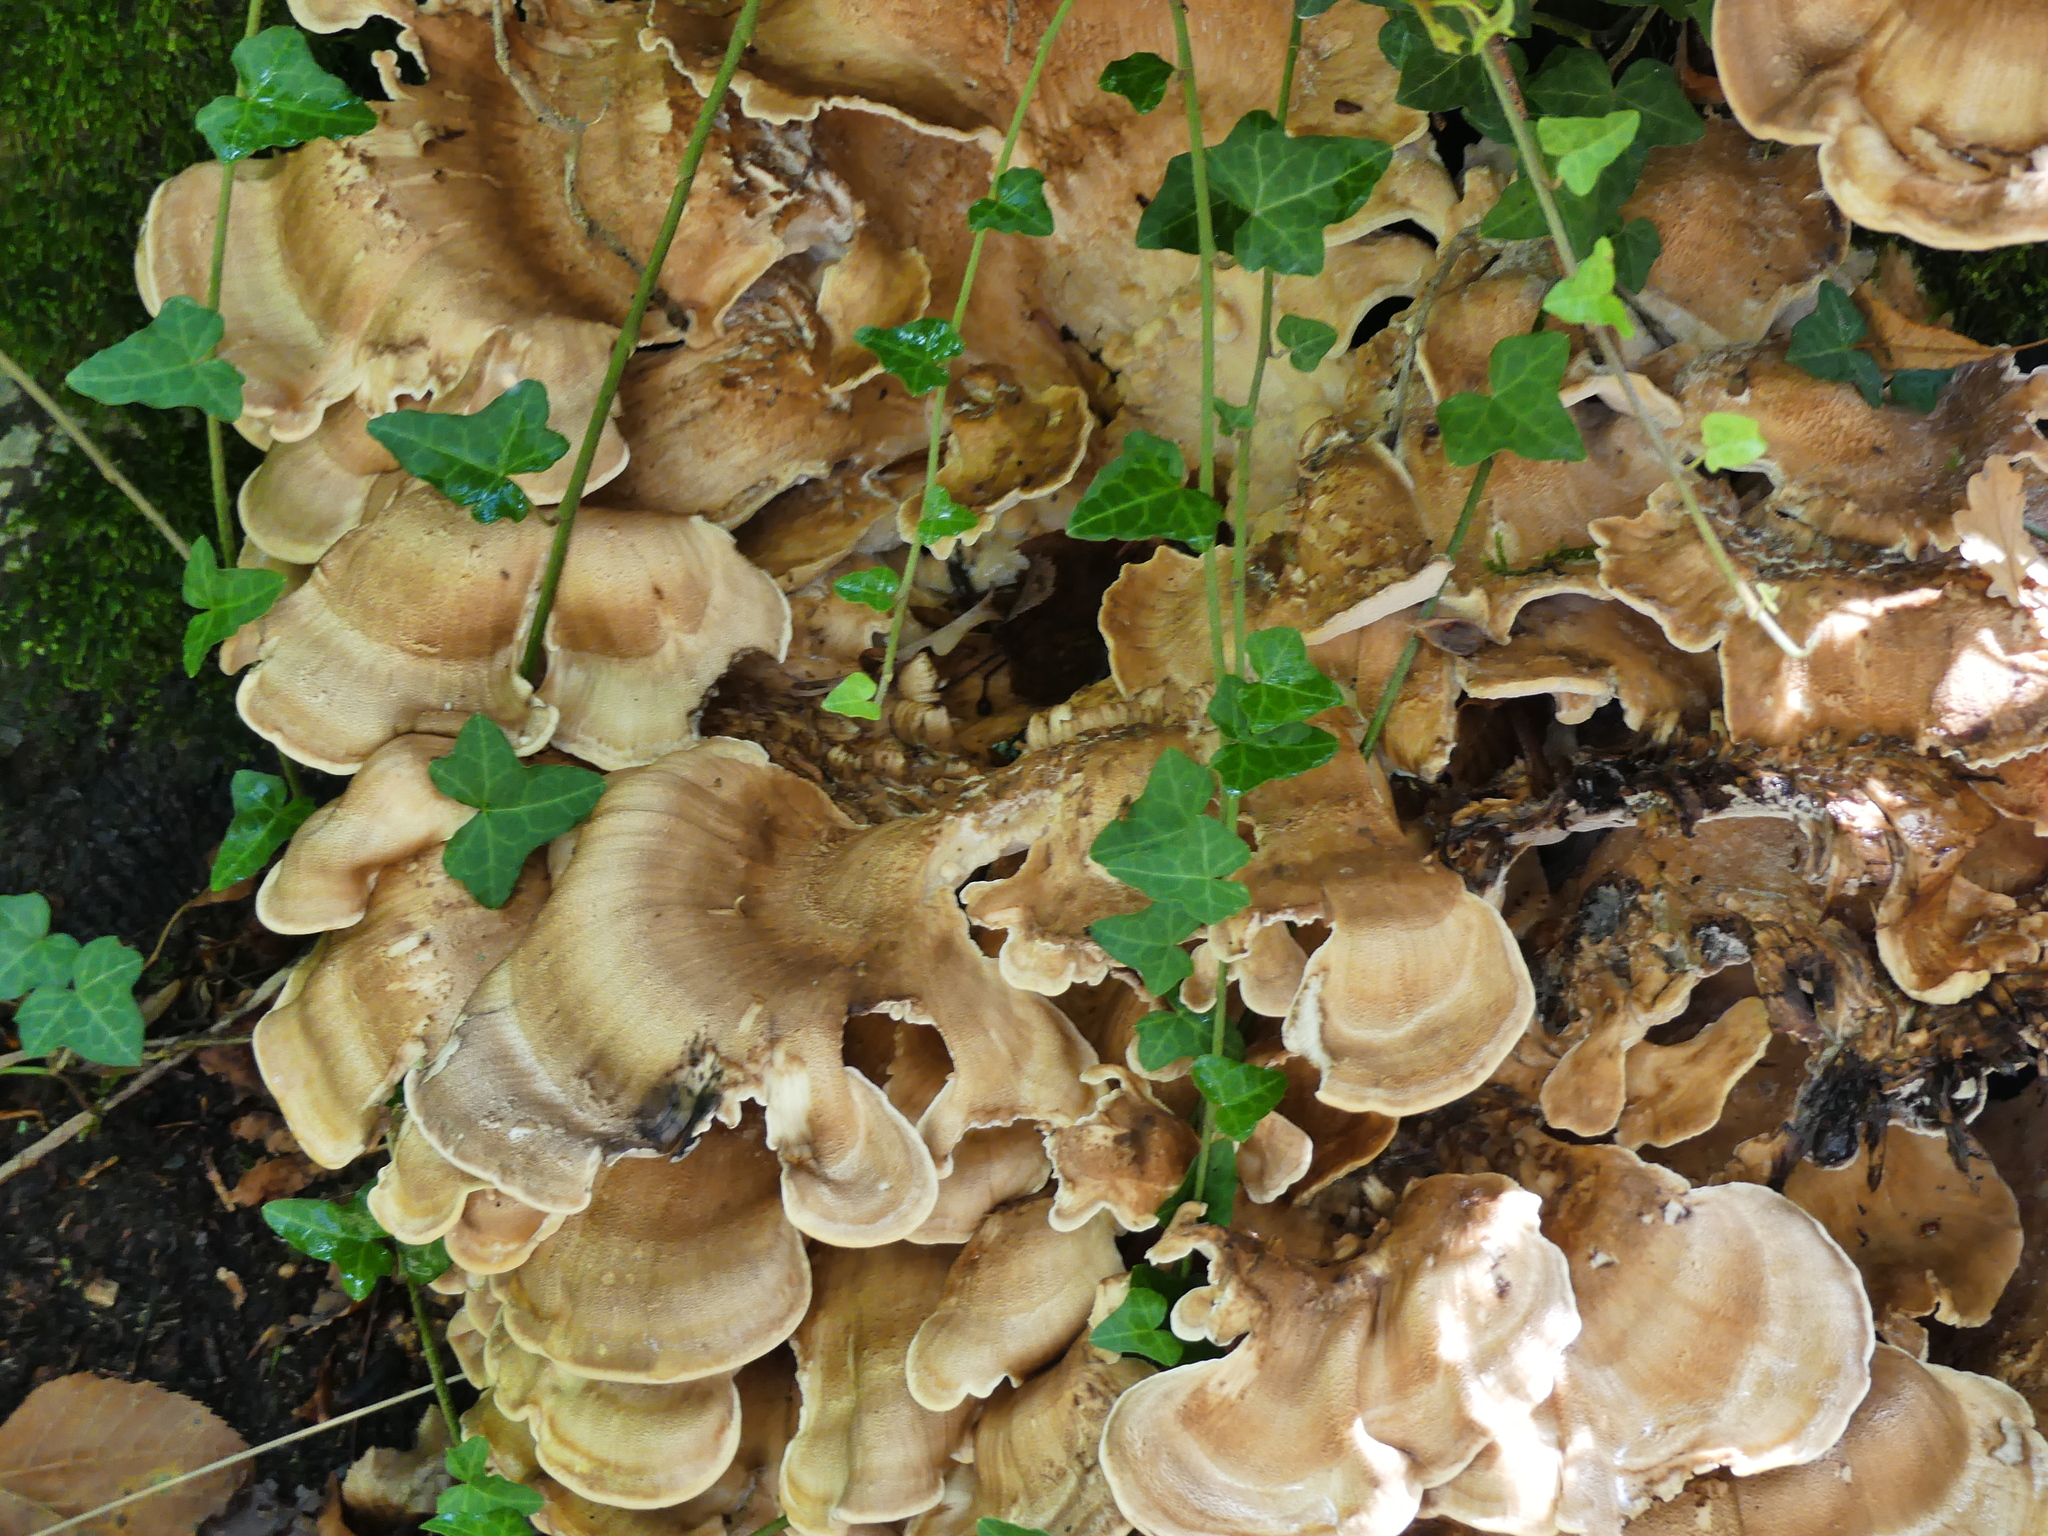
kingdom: Fungi
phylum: Basidiomycota
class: Agaricomycetes
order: Polyporales
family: Meripilaceae
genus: Meripilus
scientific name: Meripilus giganteus
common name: Giant polypore
